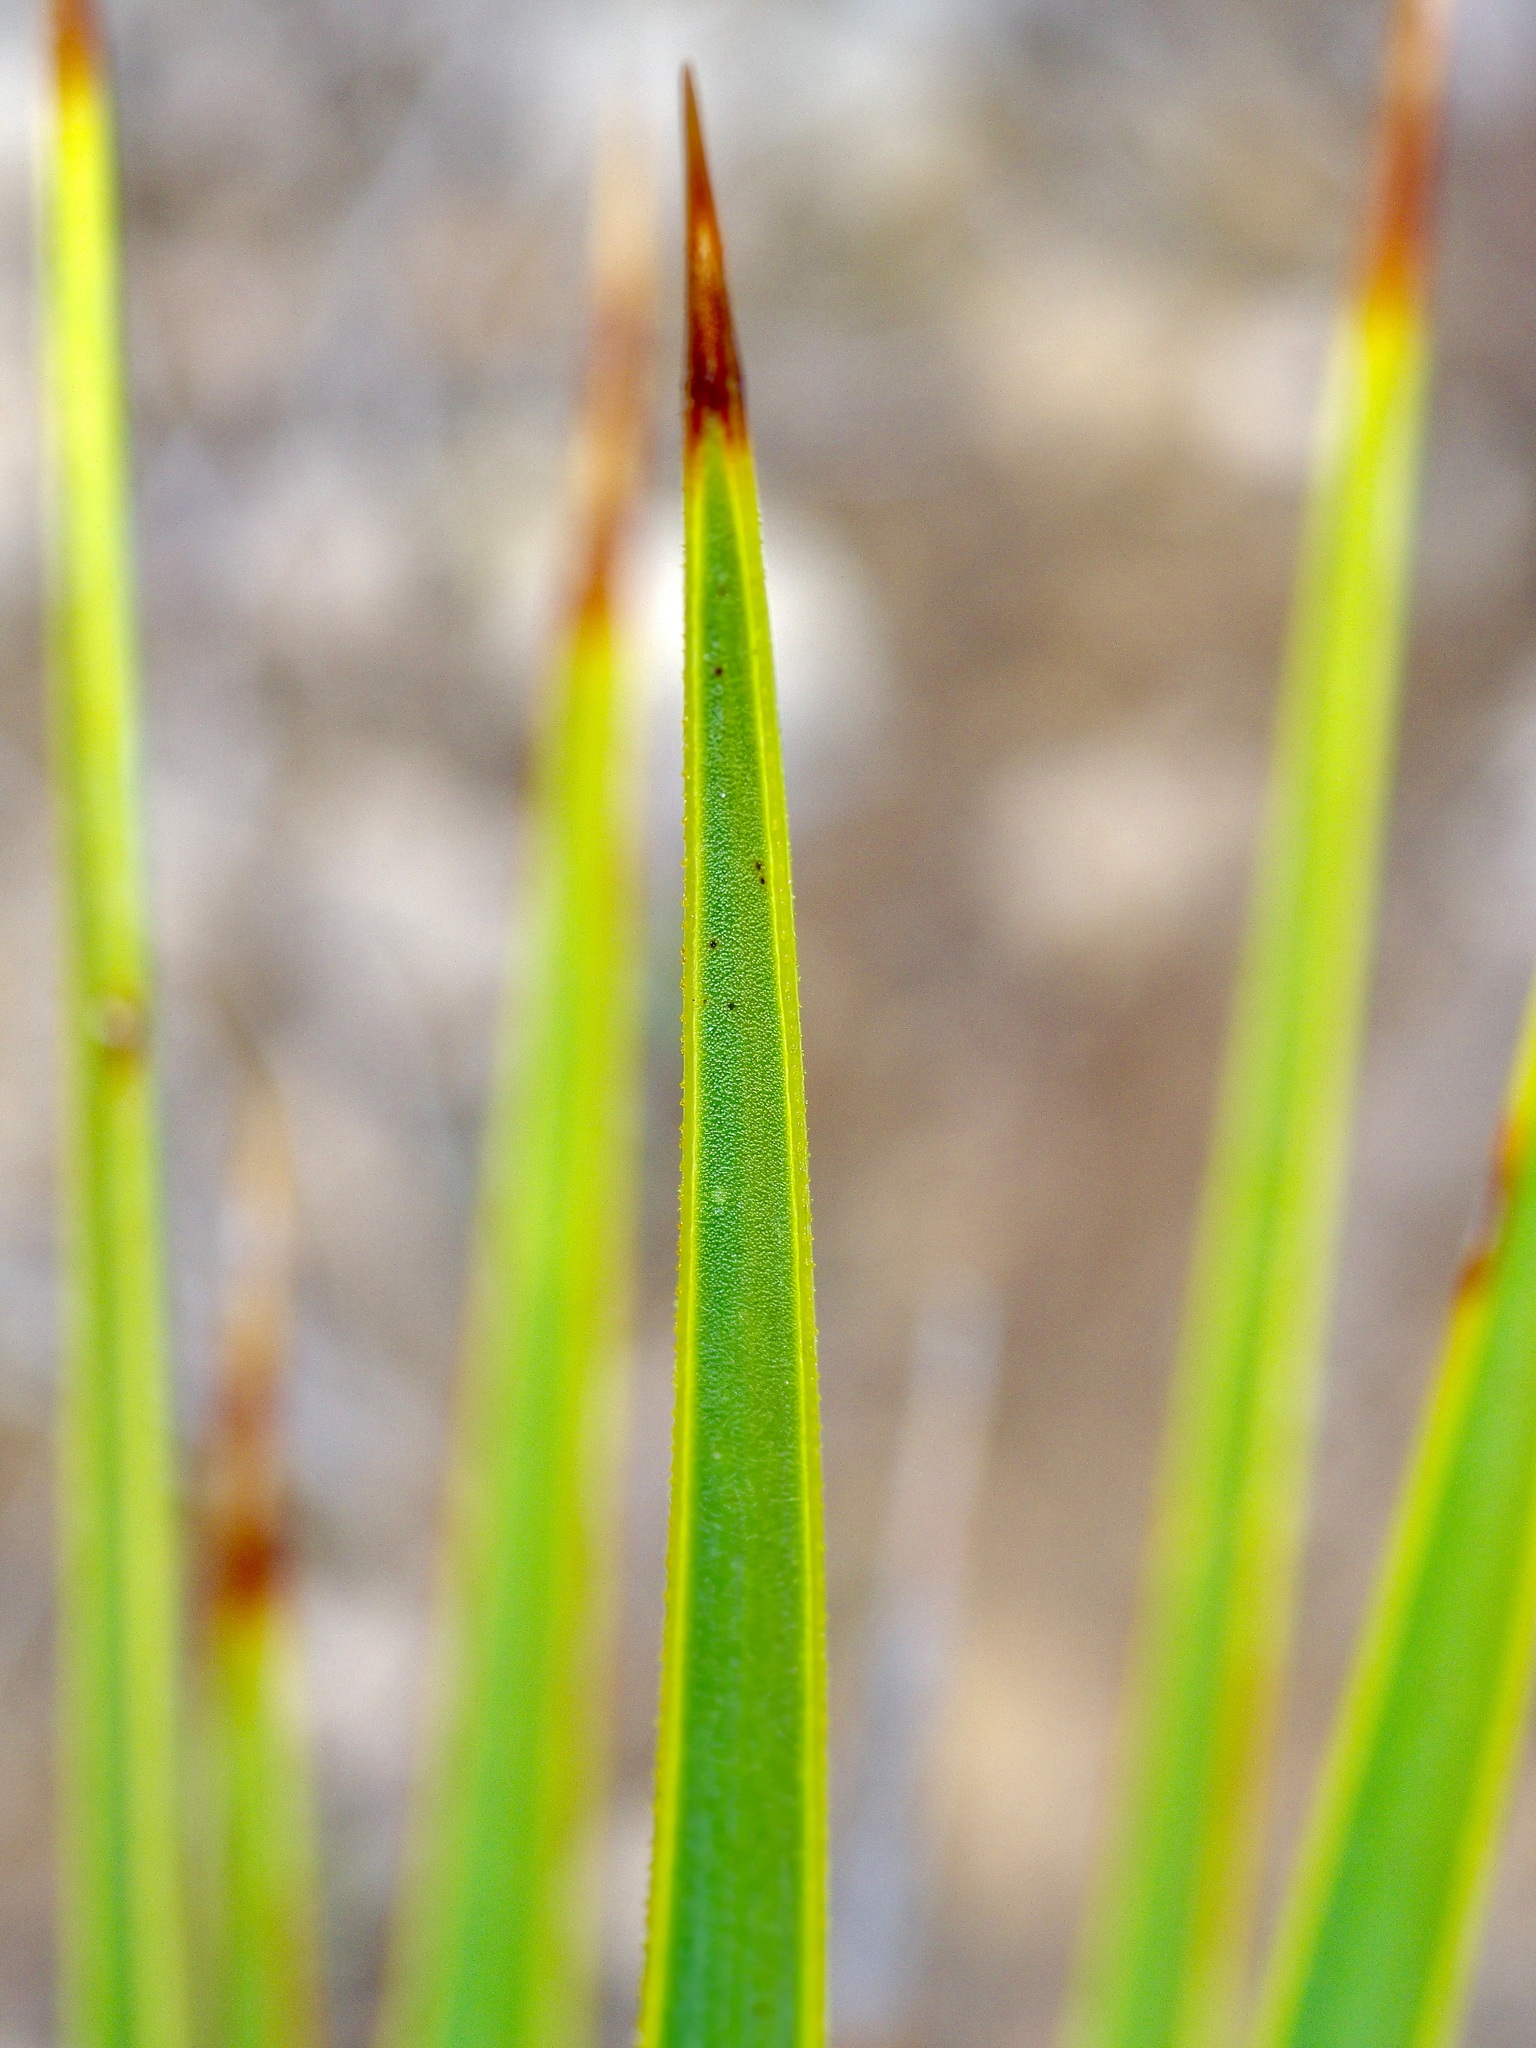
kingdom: Plantae
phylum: Tracheophyta
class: Liliopsida
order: Asparagales
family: Asparagaceae
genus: Yucca
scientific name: Yucca thompsoniana
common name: Trans-pecos yucca
